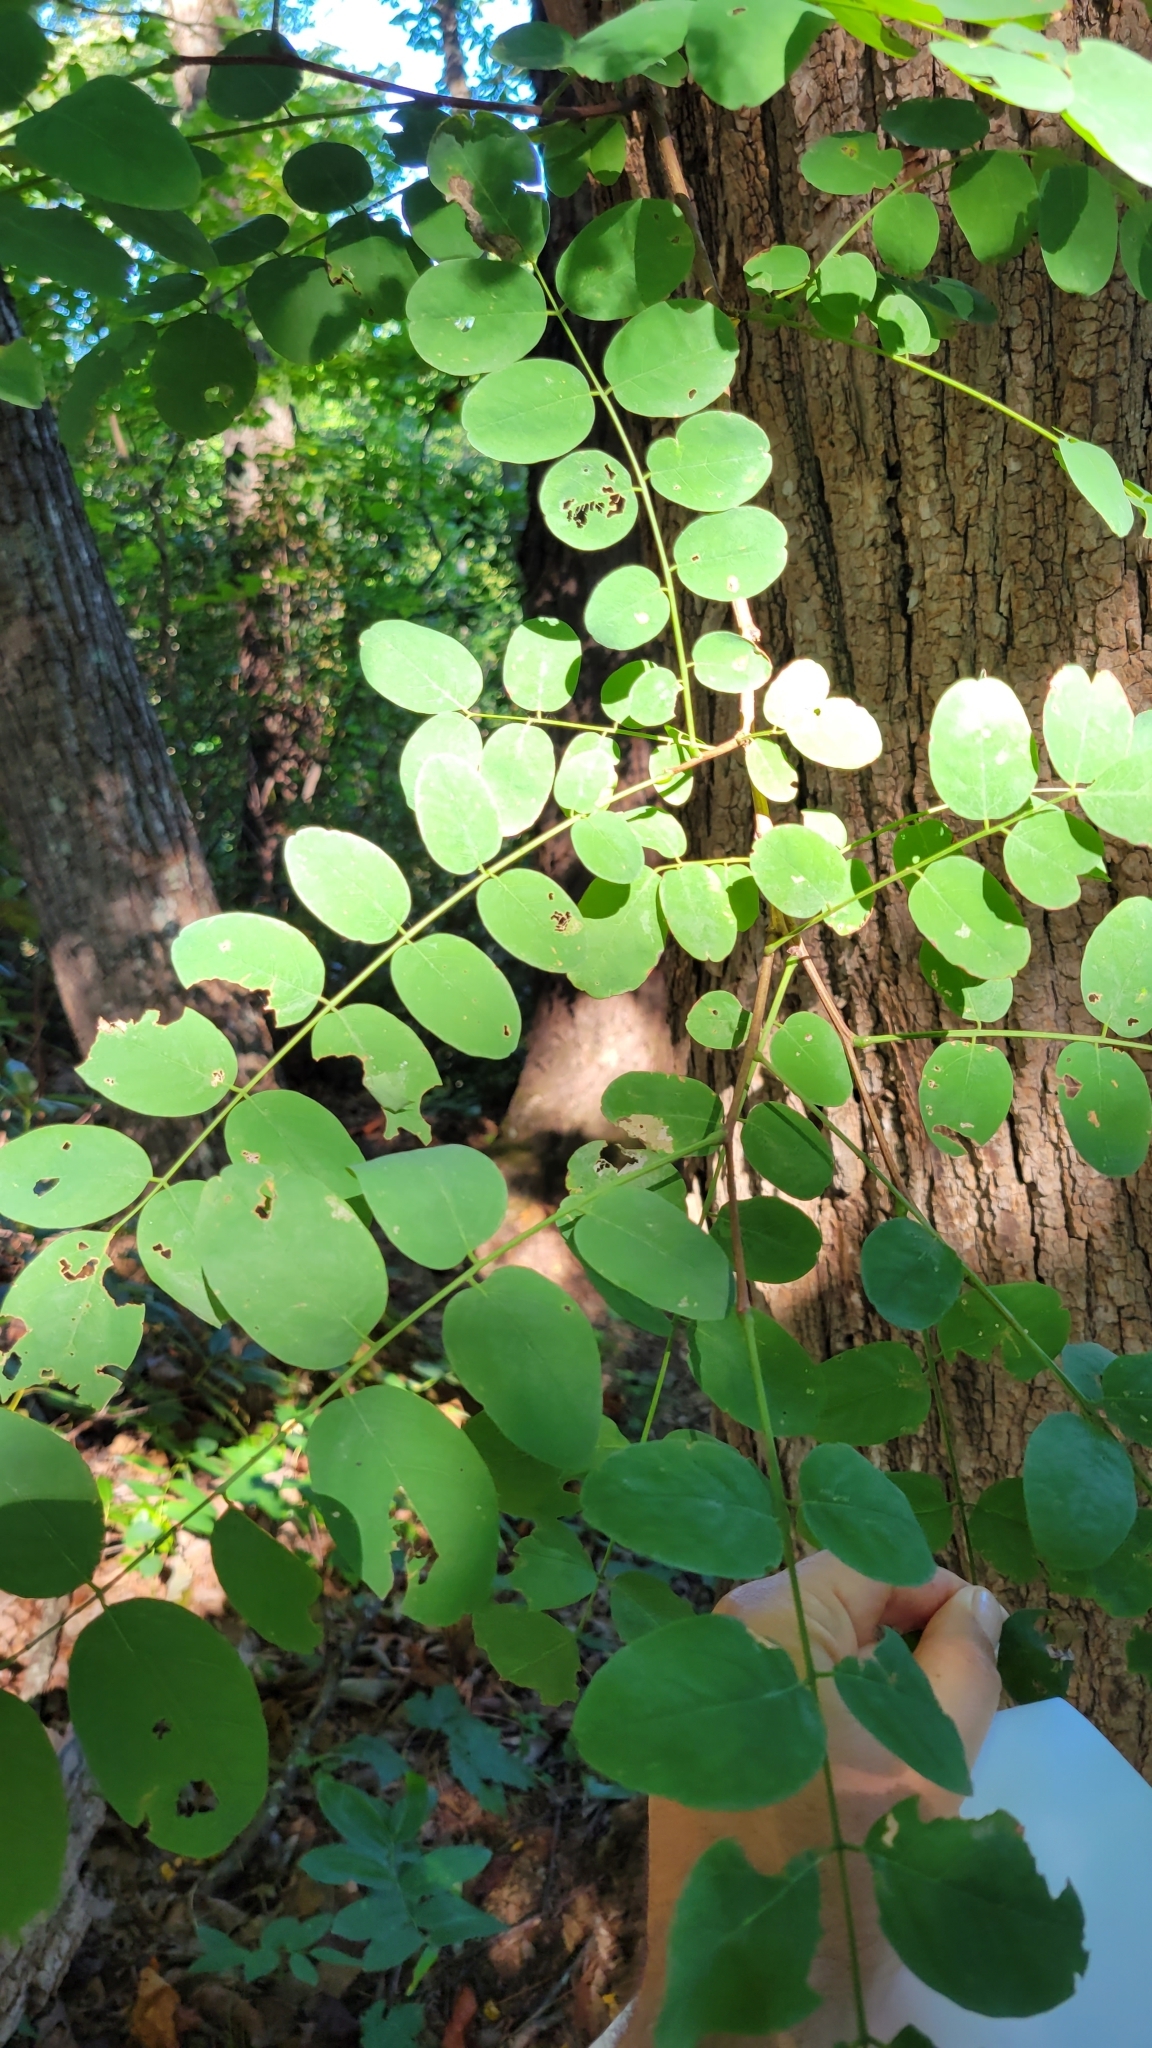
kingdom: Plantae
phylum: Tracheophyta
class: Magnoliopsida
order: Fabales
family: Fabaceae
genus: Robinia
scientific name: Robinia pseudoacacia
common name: Black locust
